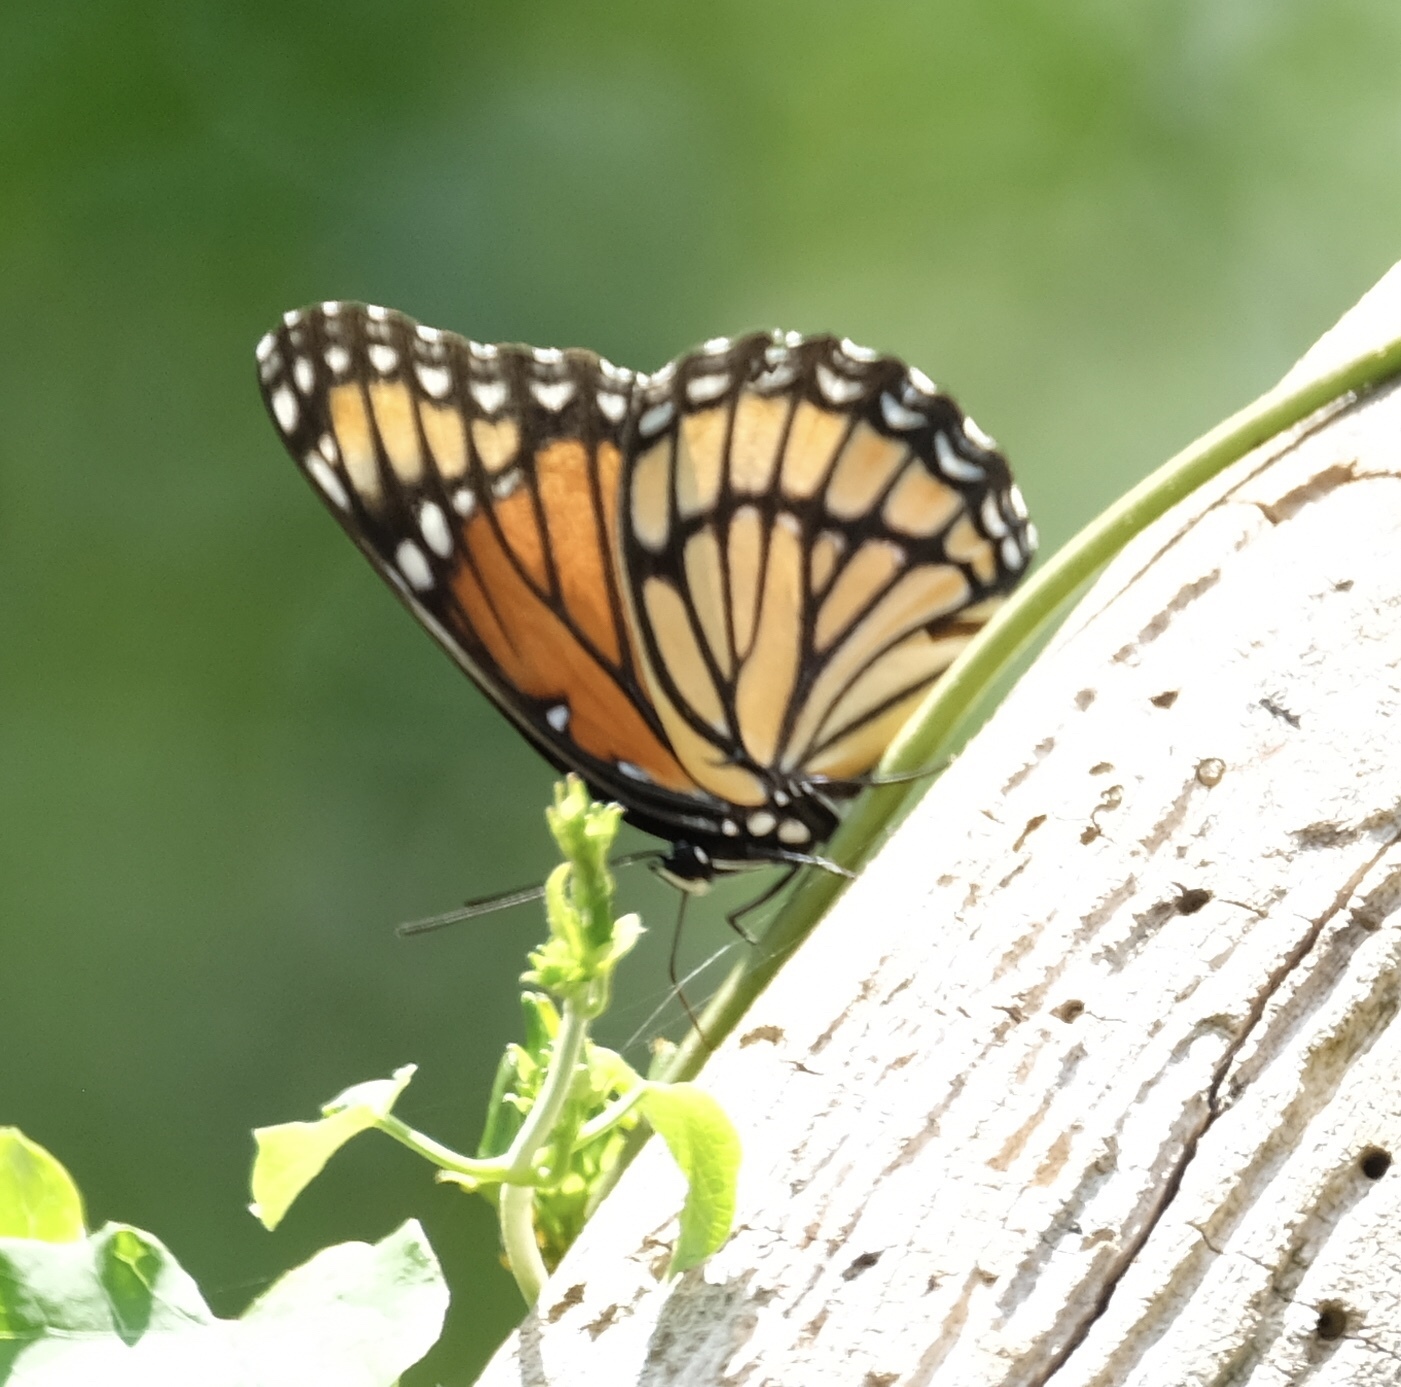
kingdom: Animalia
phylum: Arthropoda
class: Insecta
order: Lepidoptera
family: Nymphalidae
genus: Limenitis
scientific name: Limenitis archippus
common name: Viceroy
